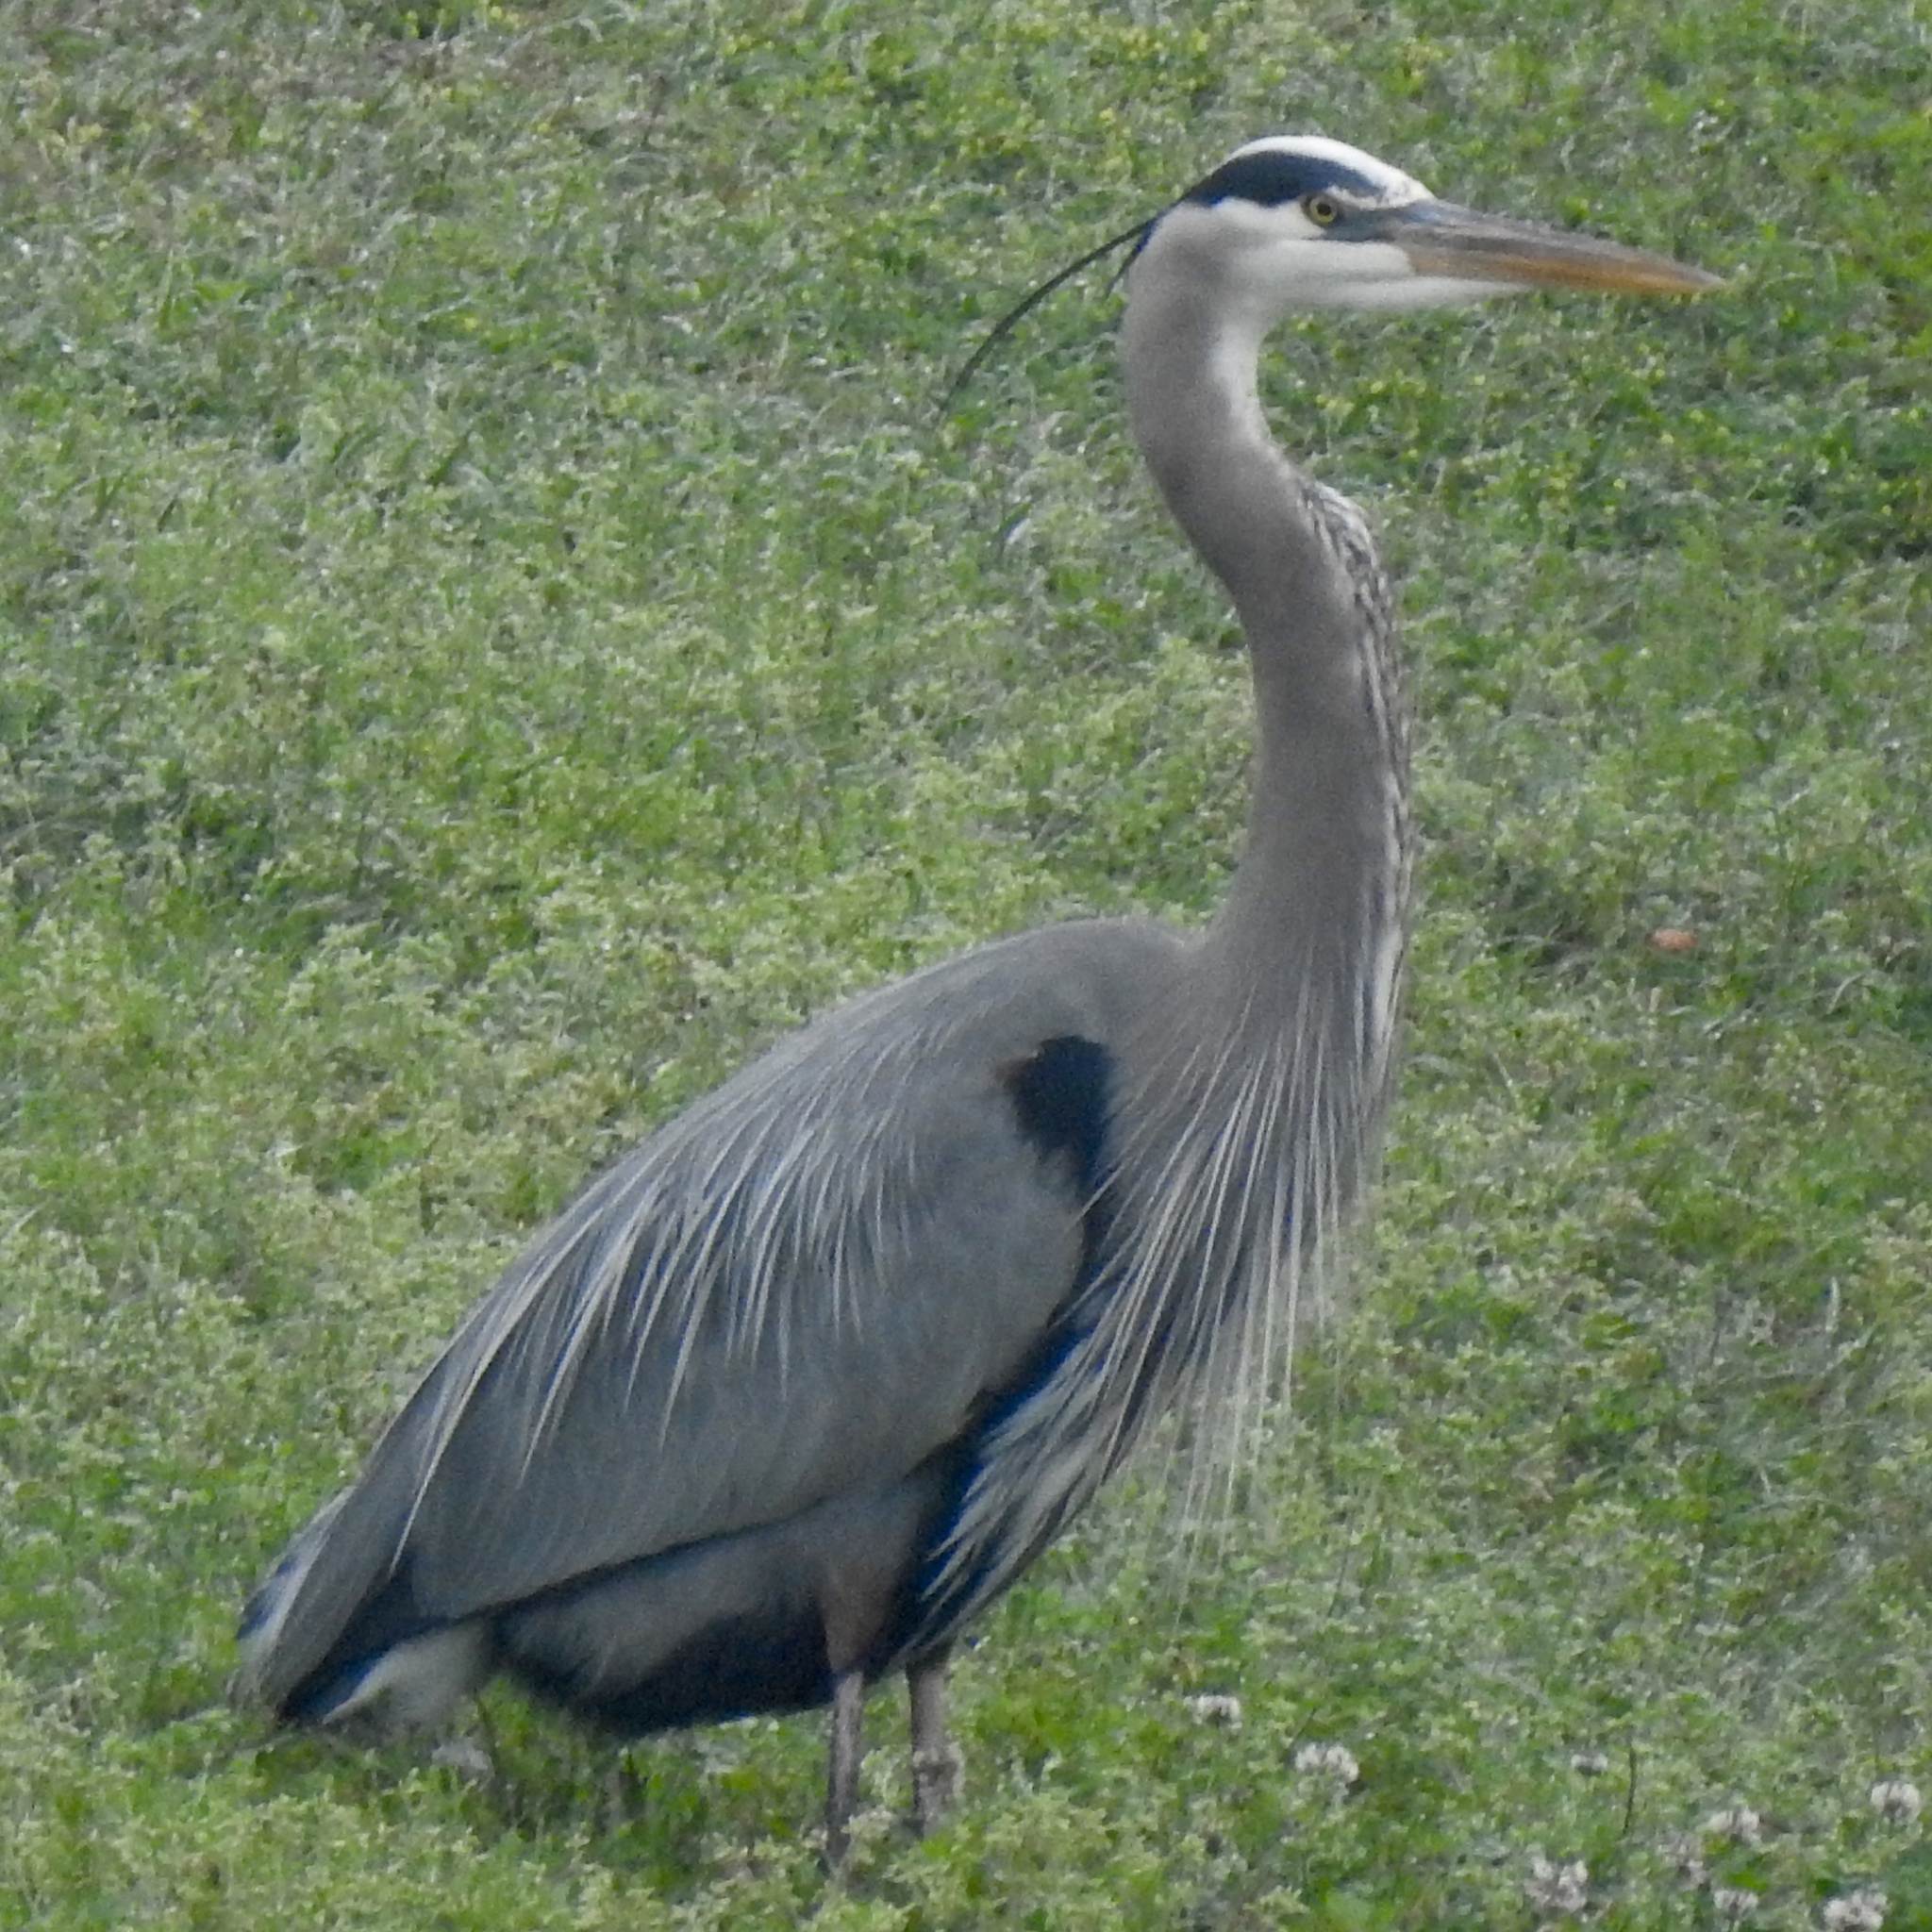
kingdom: Animalia
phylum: Chordata
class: Aves
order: Pelecaniformes
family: Ardeidae
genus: Ardea
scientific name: Ardea herodias
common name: Great blue heron
